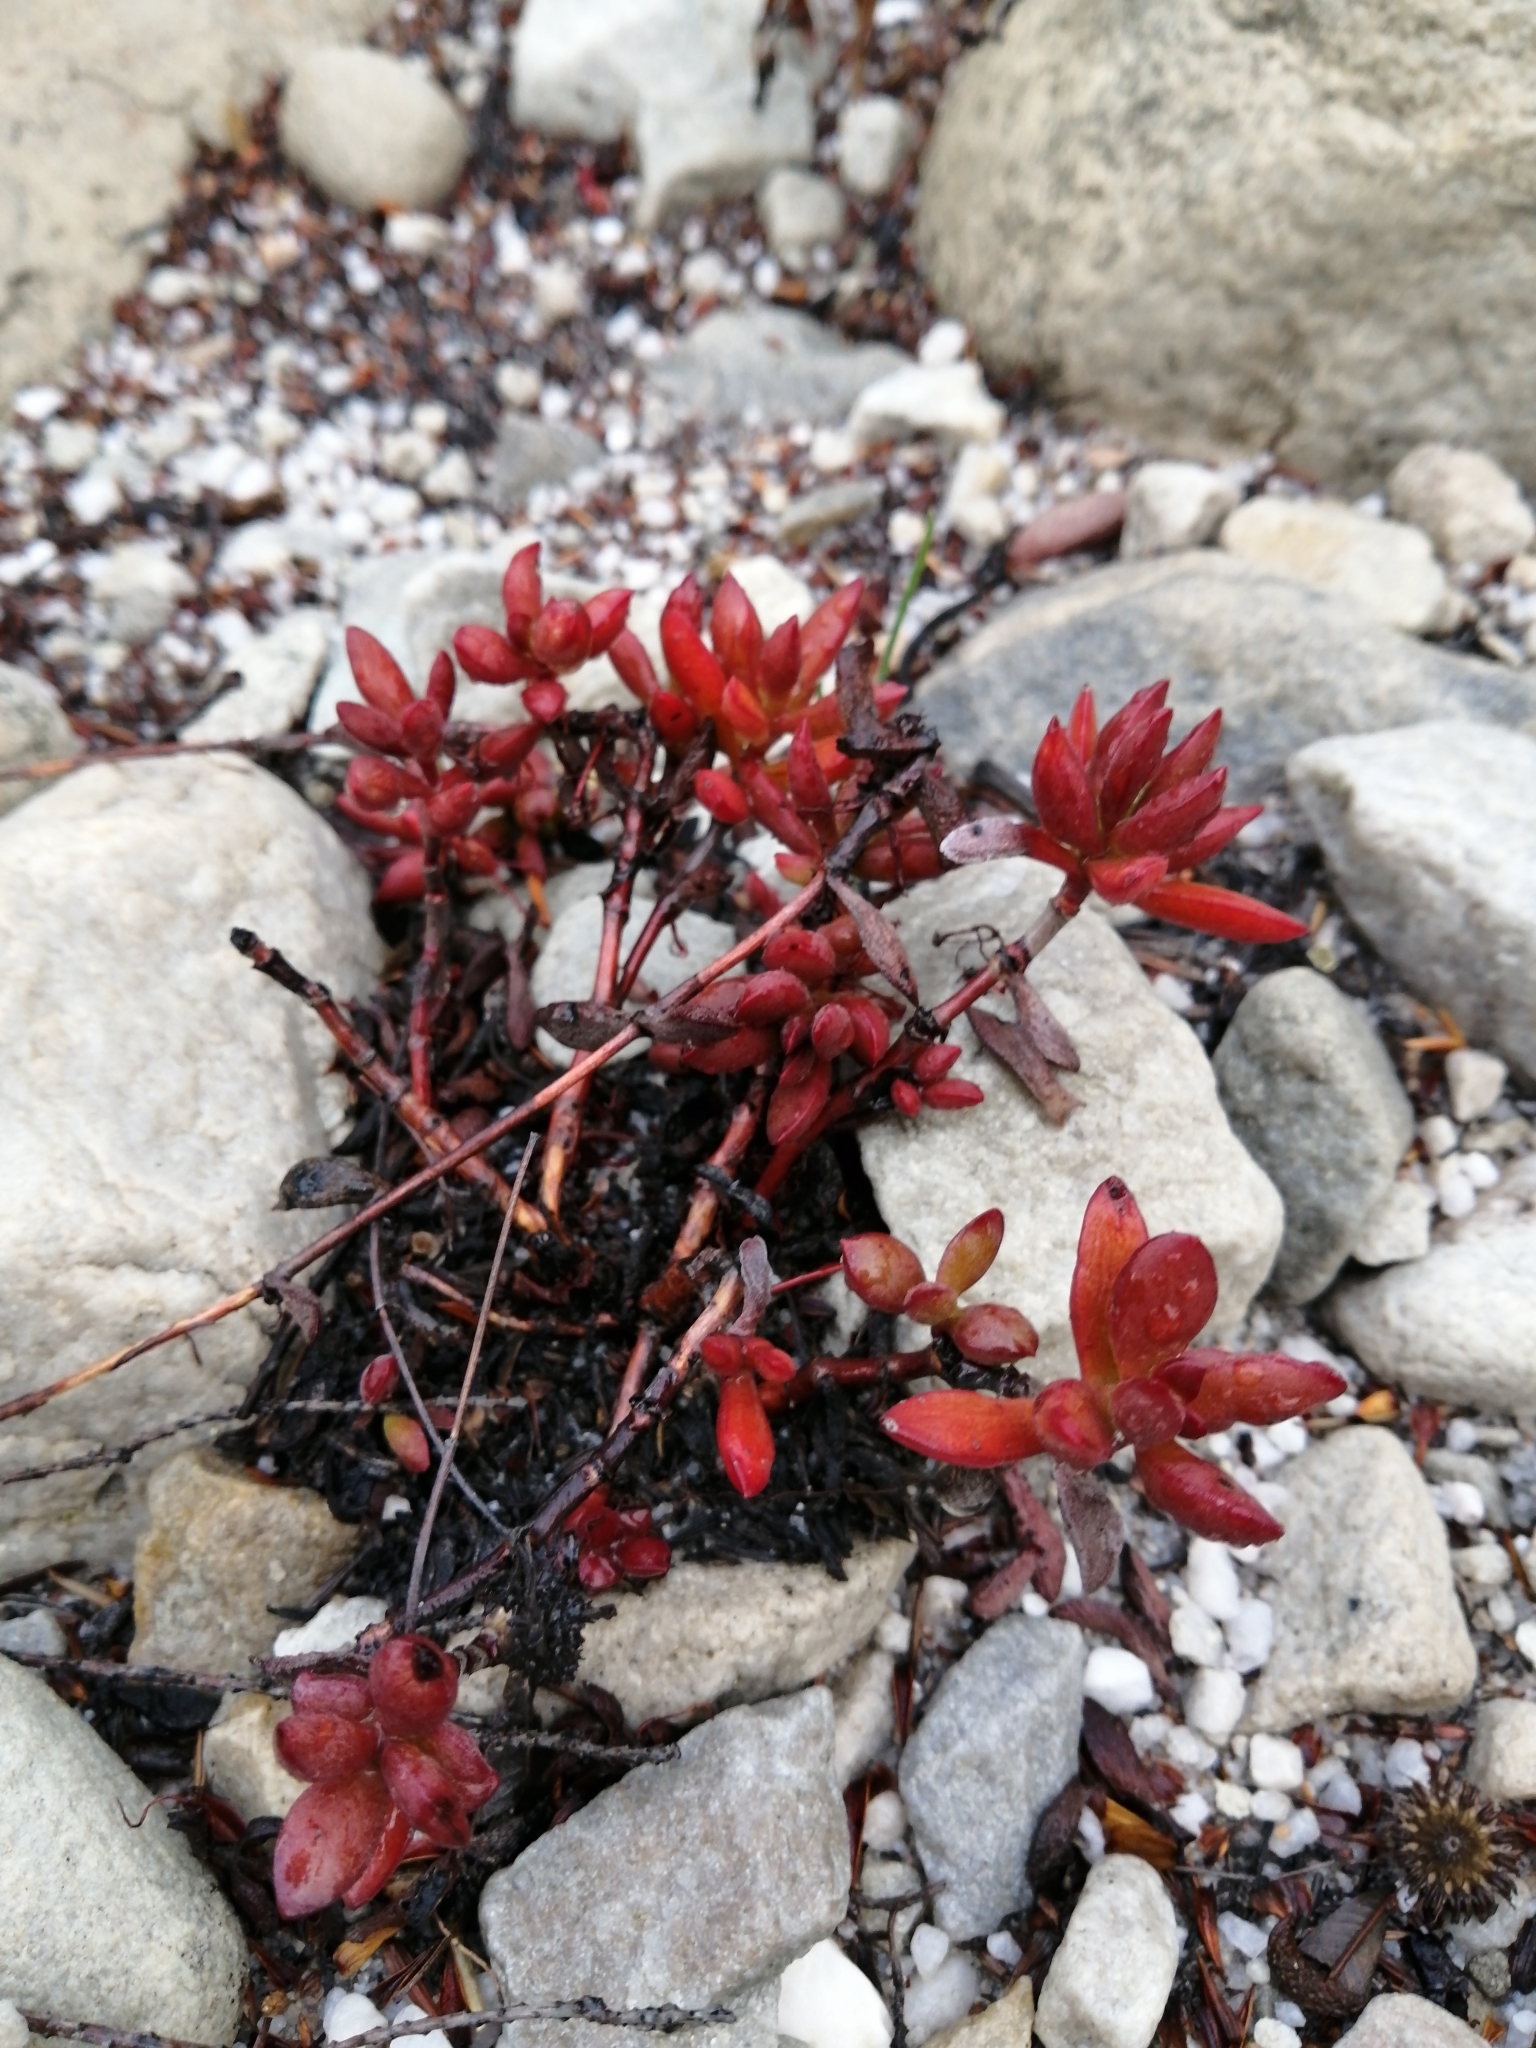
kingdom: Plantae
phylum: Tracheophyta
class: Magnoliopsida
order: Saxifragales
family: Crassulaceae
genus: Crassula
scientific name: Crassula atropurpurea
